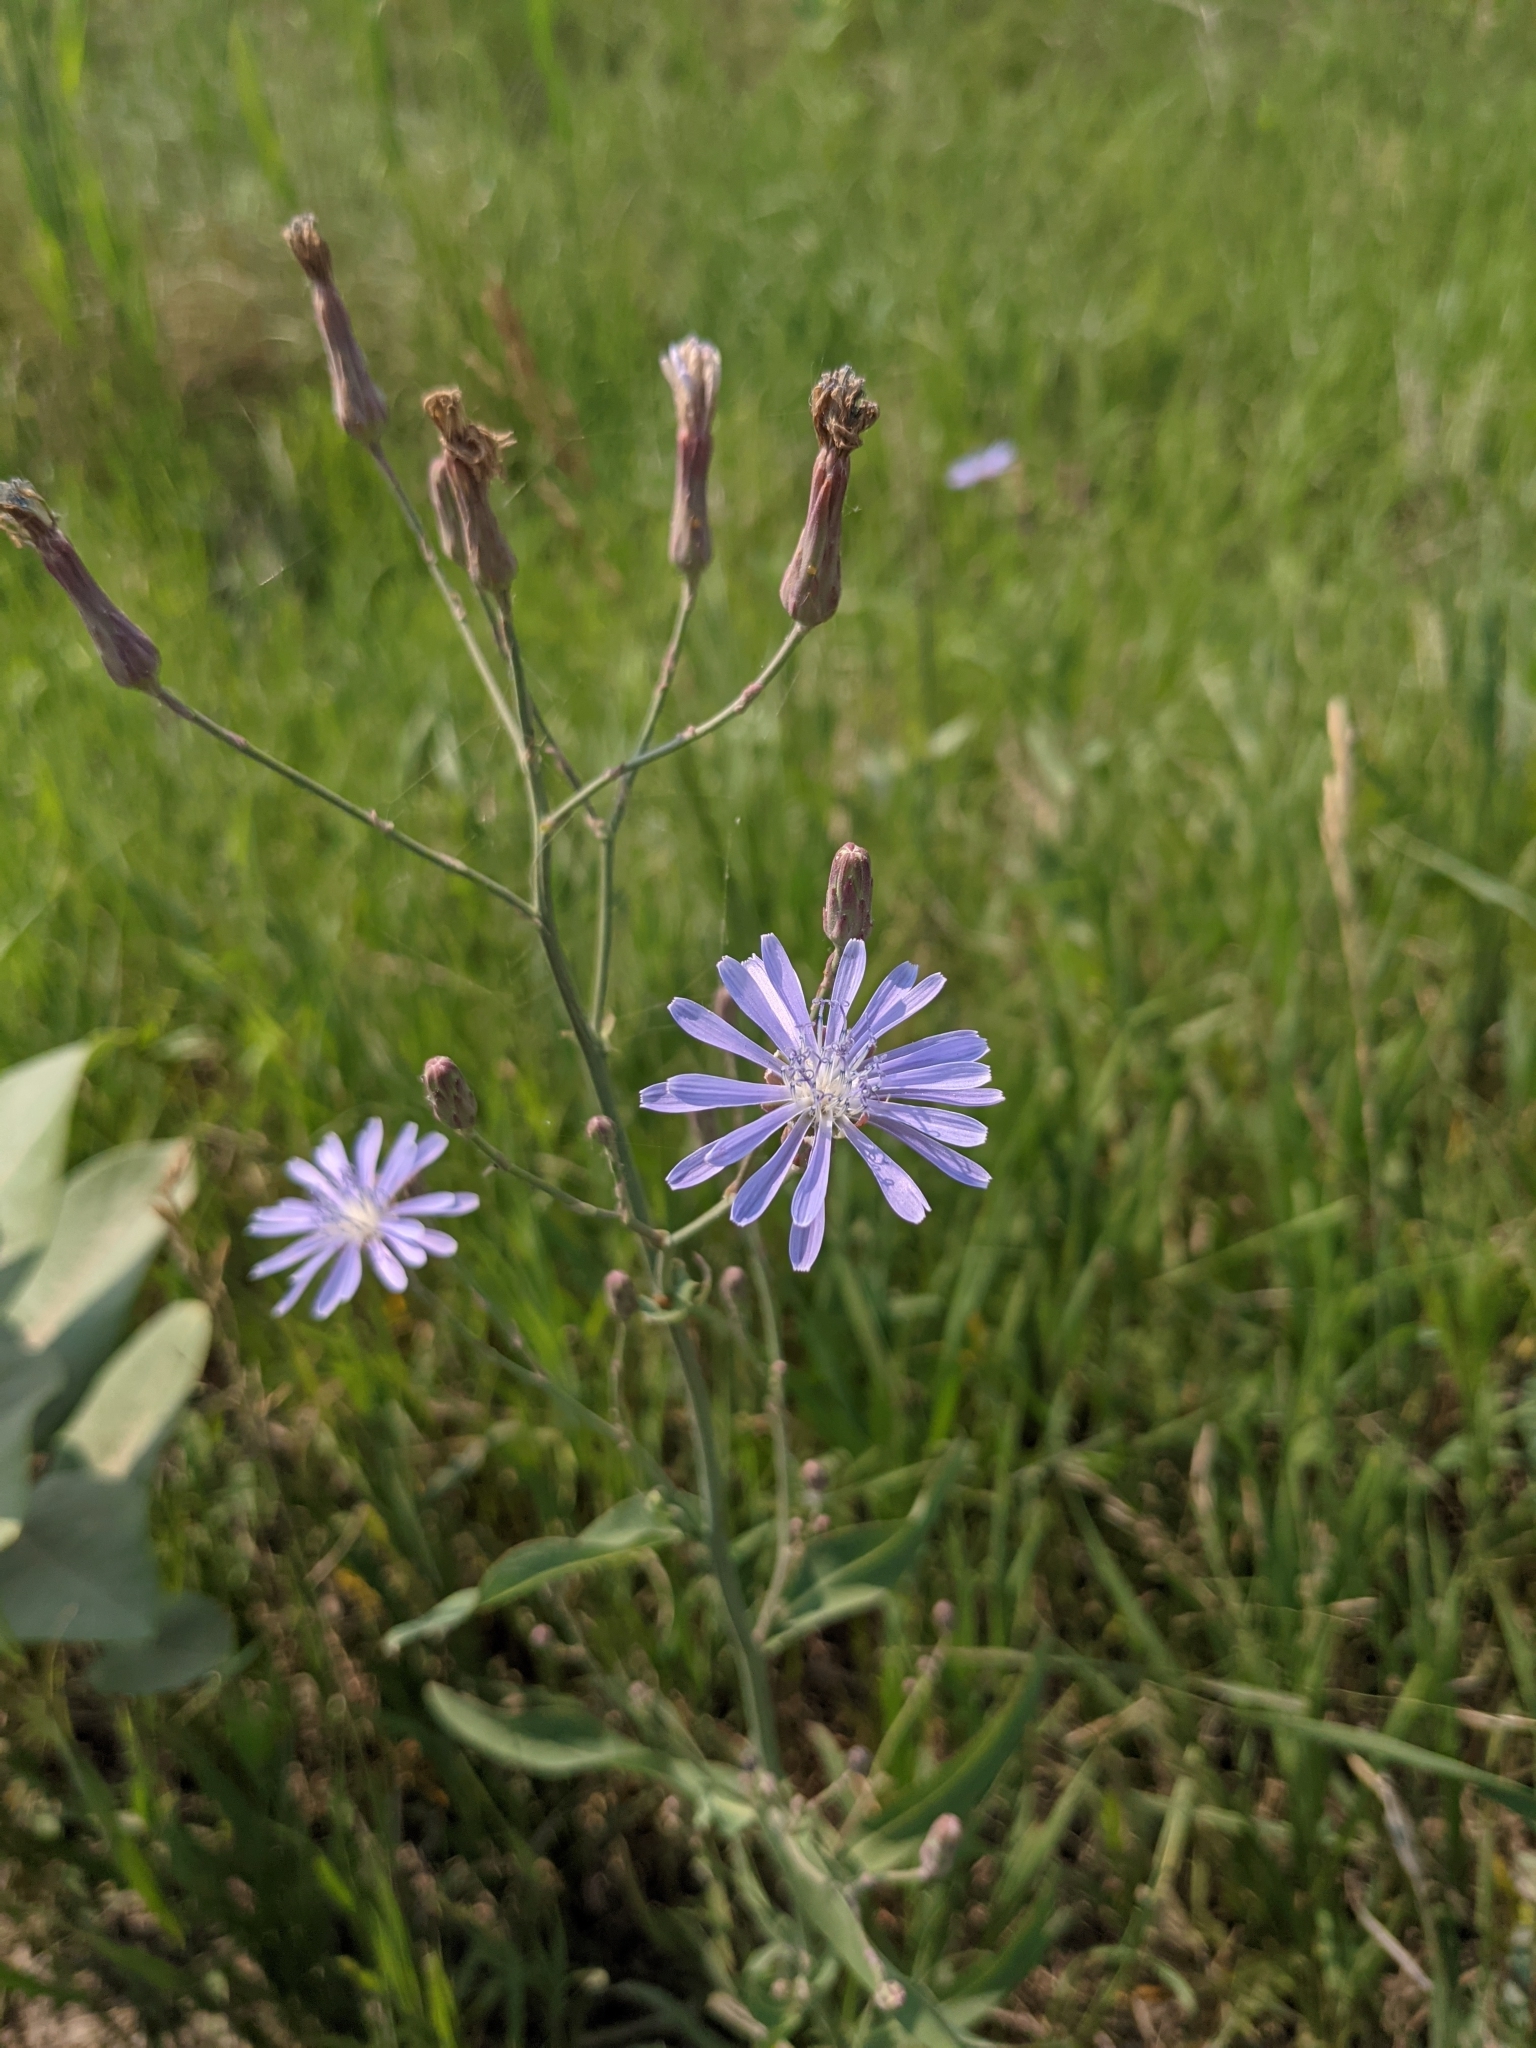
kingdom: Plantae
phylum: Tracheophyta
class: Magnoliopsida
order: Asterales
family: Asteraceae
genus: Lactuca
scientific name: Lactuca tatarica
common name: Blue lettuce
